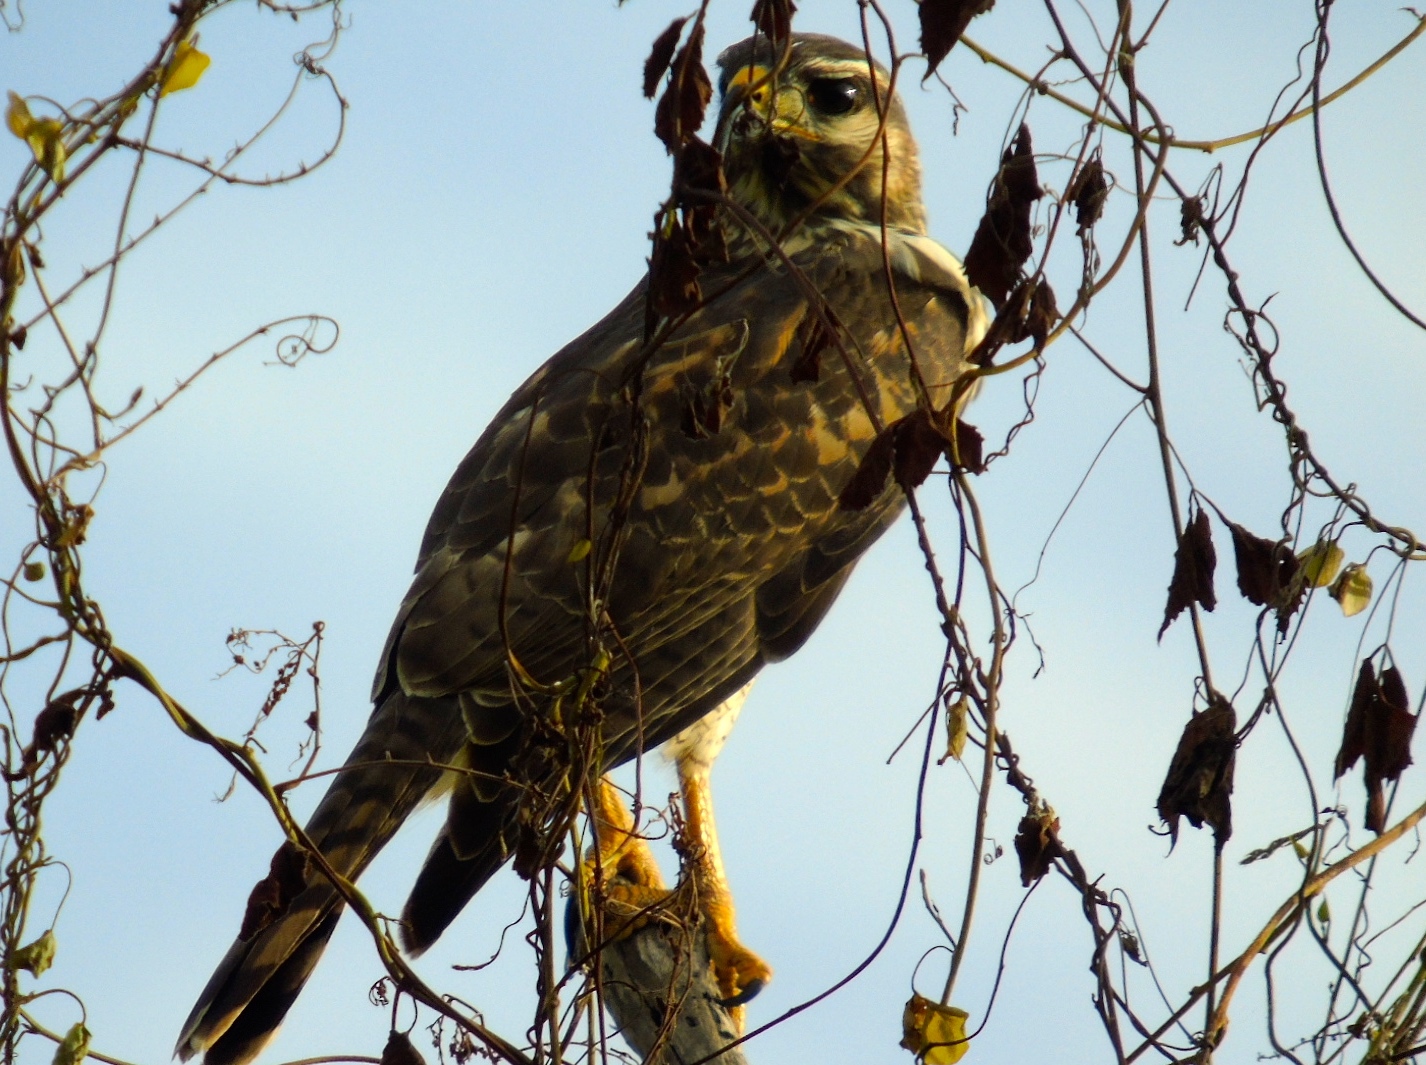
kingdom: Animalia
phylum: Chordata
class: Aves
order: Accipitriformes
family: Accipitridae
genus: Buteo
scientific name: Buteo nitidus
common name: Grey-lined hawk
